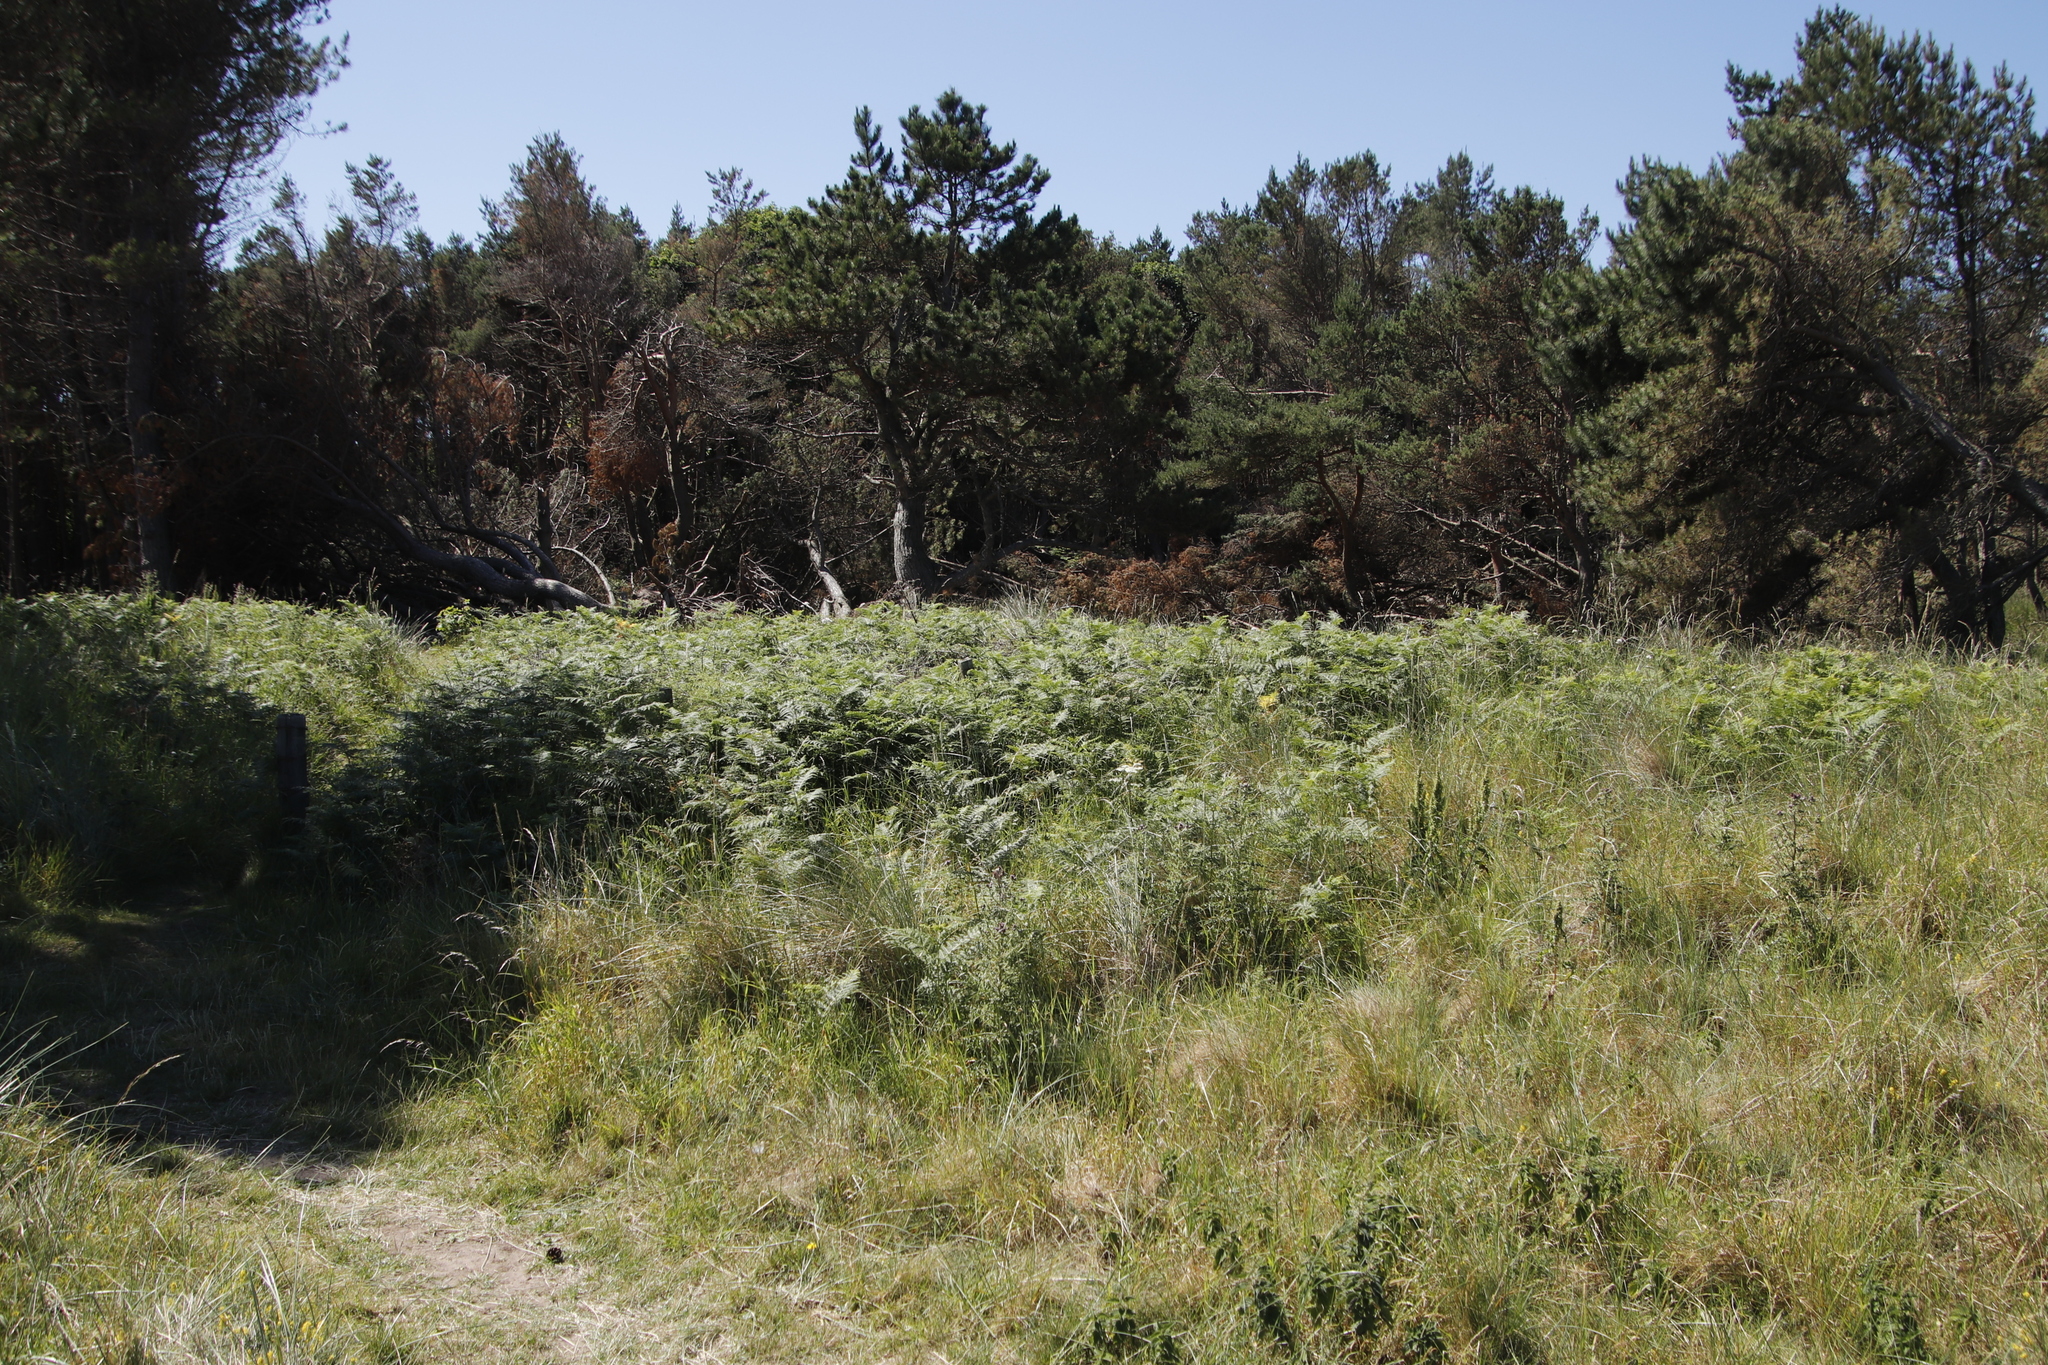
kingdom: Plantae
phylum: Tracheophyta
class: Polypodiopsida
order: Polypodiales
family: Dennstaedtiaceae
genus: Pteridium
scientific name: Pteridium aquilinum
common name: Bracken
